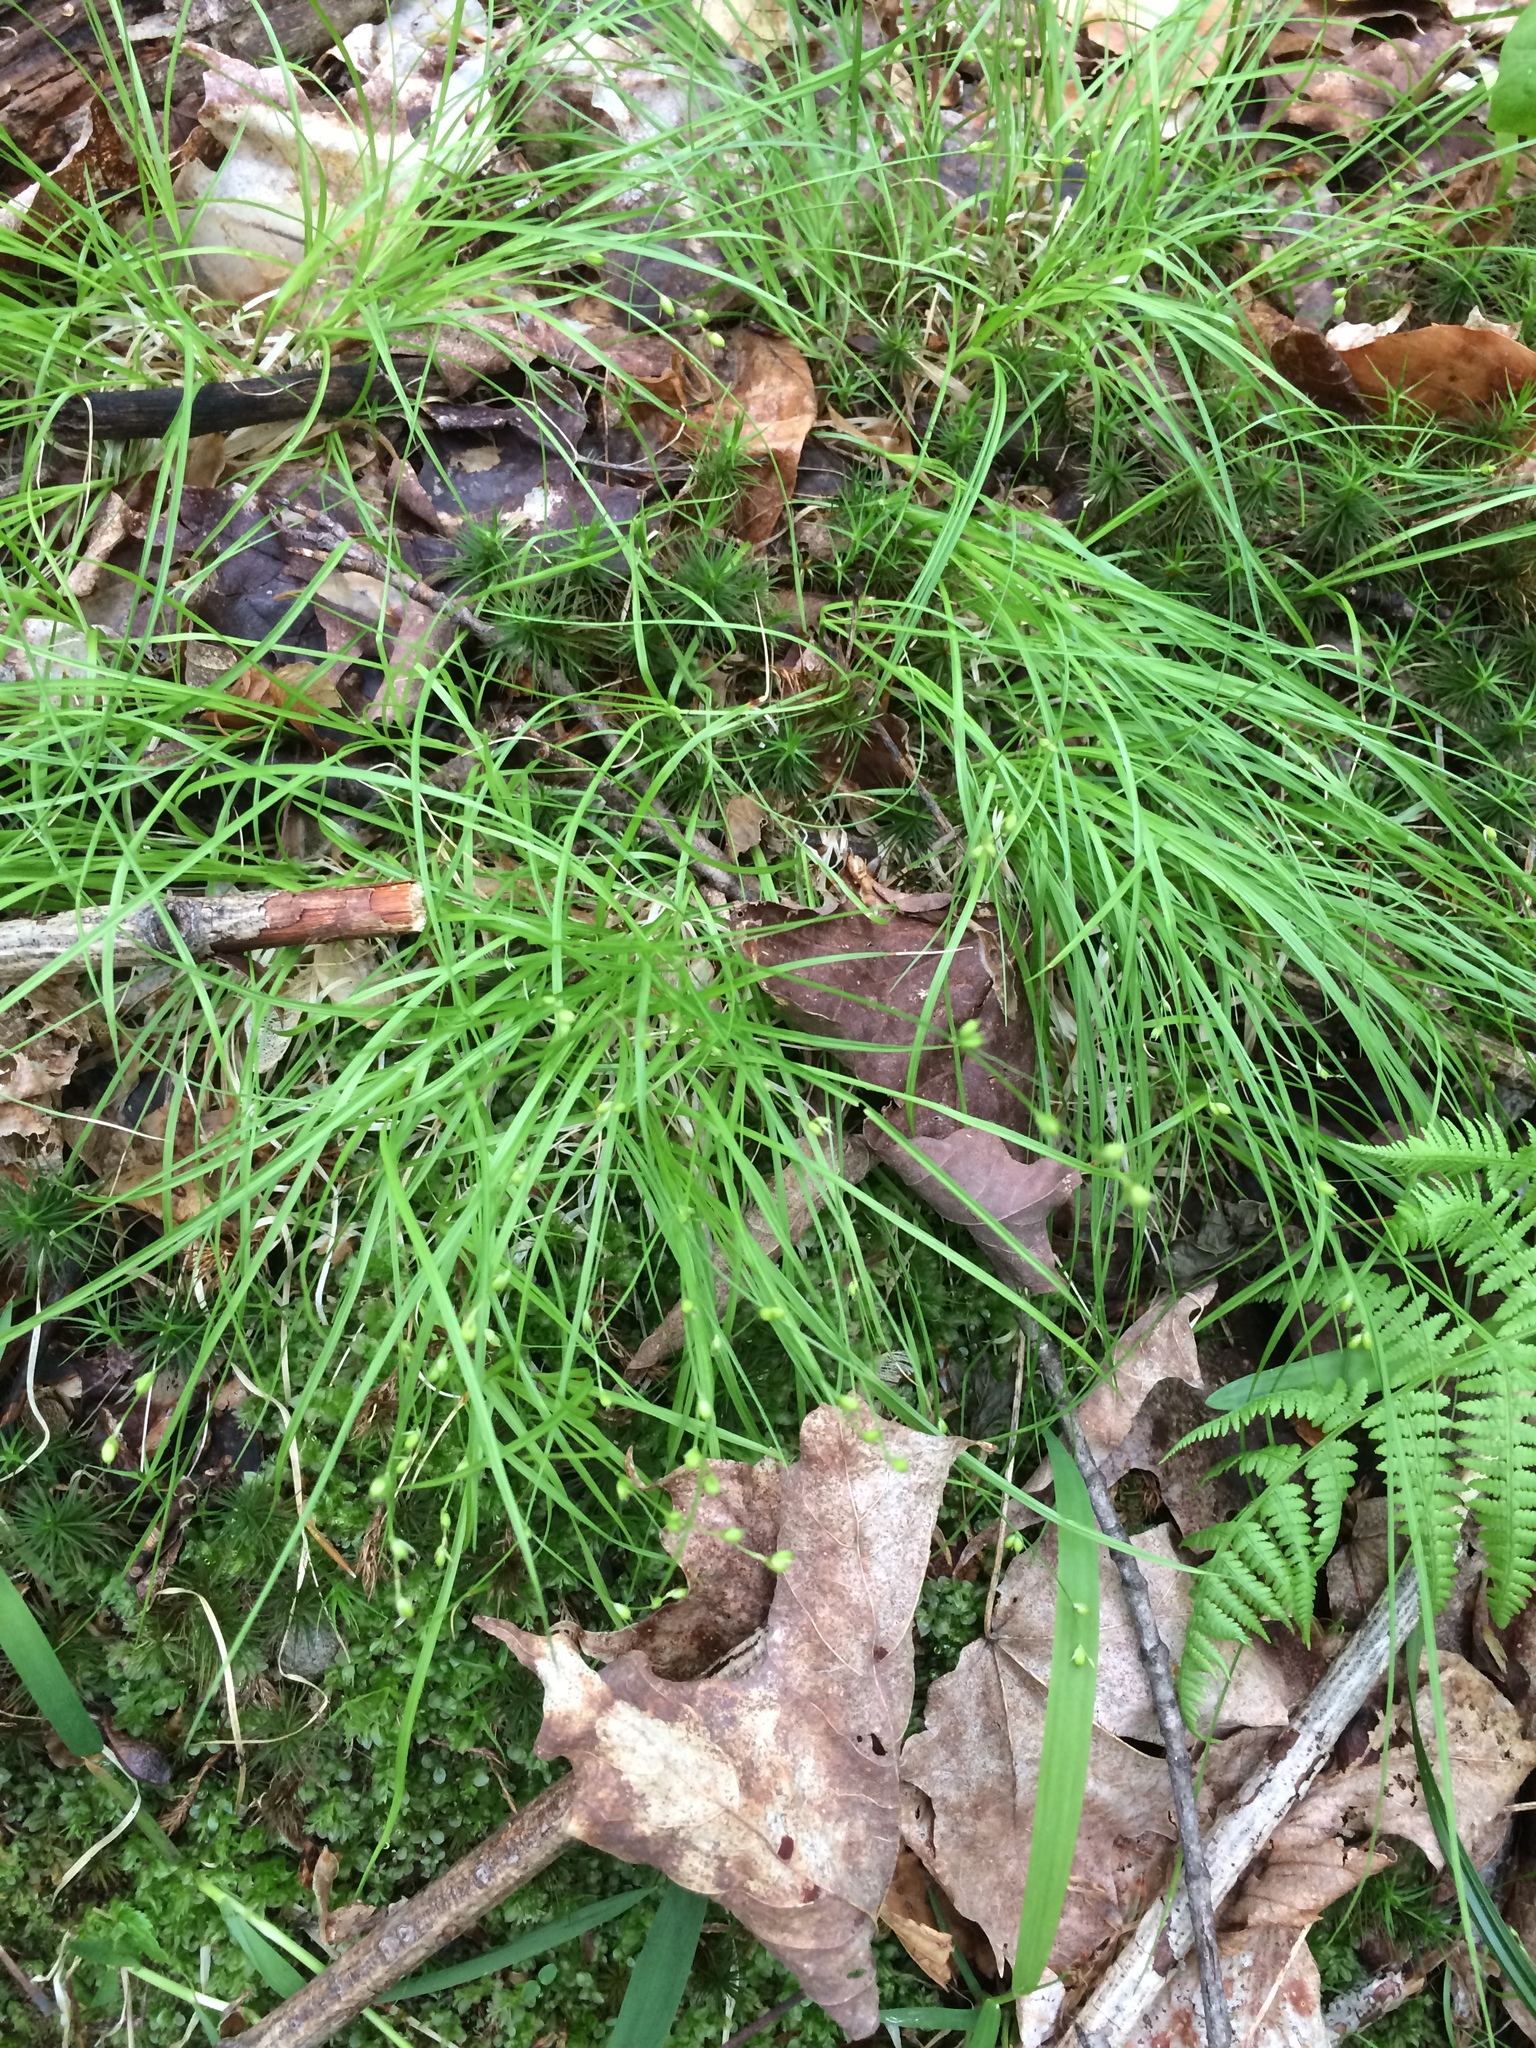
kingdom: Plantae
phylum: Tracheophyta
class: Liliopsida
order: Poales
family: Cyperaceae
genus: Carex
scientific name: Carex disperma
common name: Short-leaved sedge
